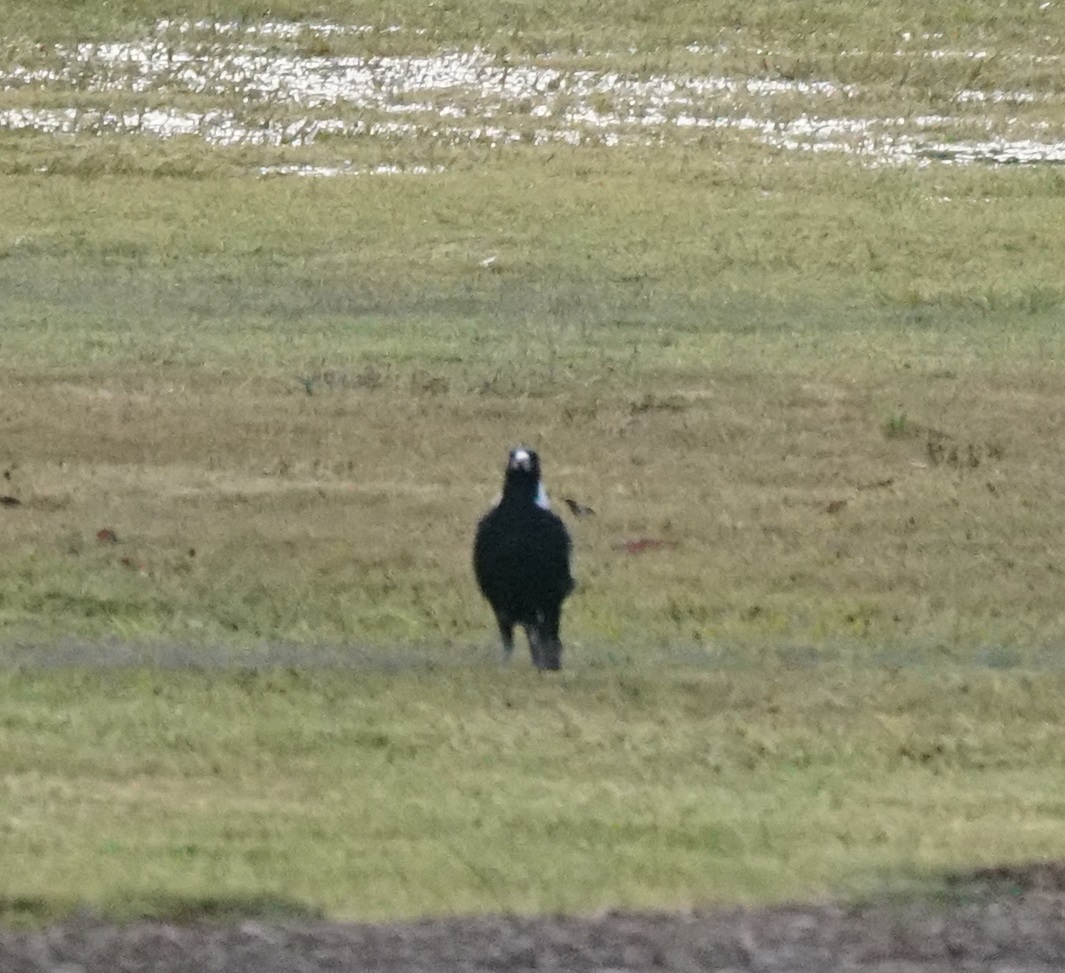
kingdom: Animalia
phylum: Chordata
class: Aves
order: Passeriformes
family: Cracticidae
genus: Gymnorhina
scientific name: Gymnorhina tibicen
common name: Australian magpie
